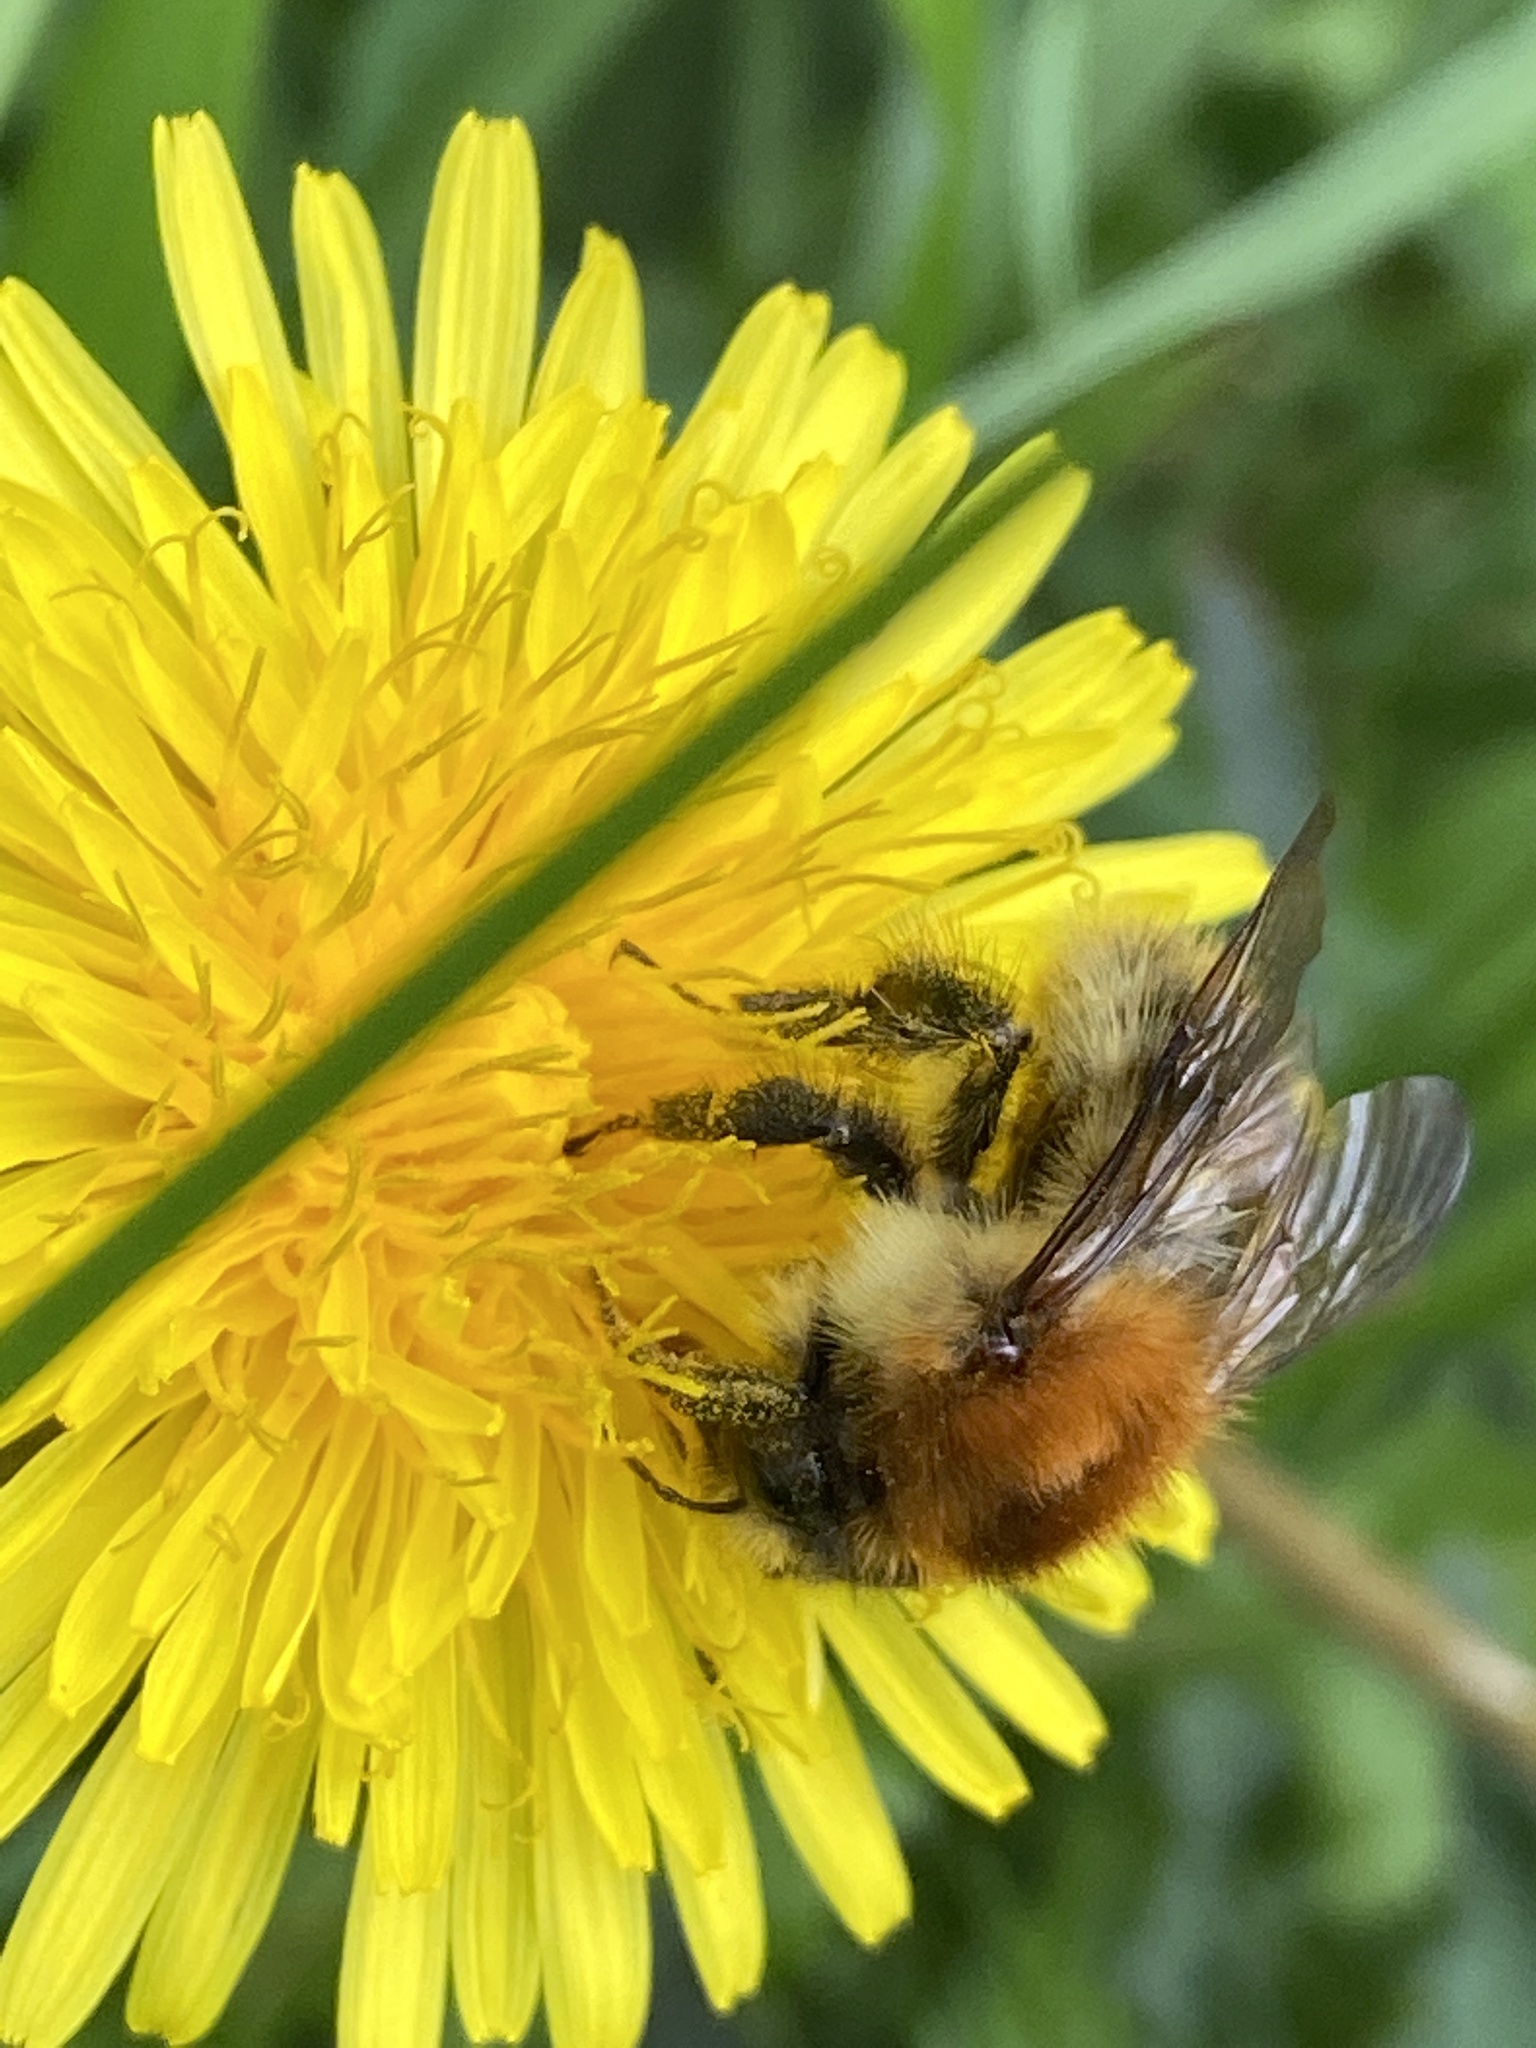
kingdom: Animalia
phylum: Arthropoda
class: Insecta
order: Hymenoptera
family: Apidae
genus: Bombus
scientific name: Bombus pascuorum
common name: Common carder bee
